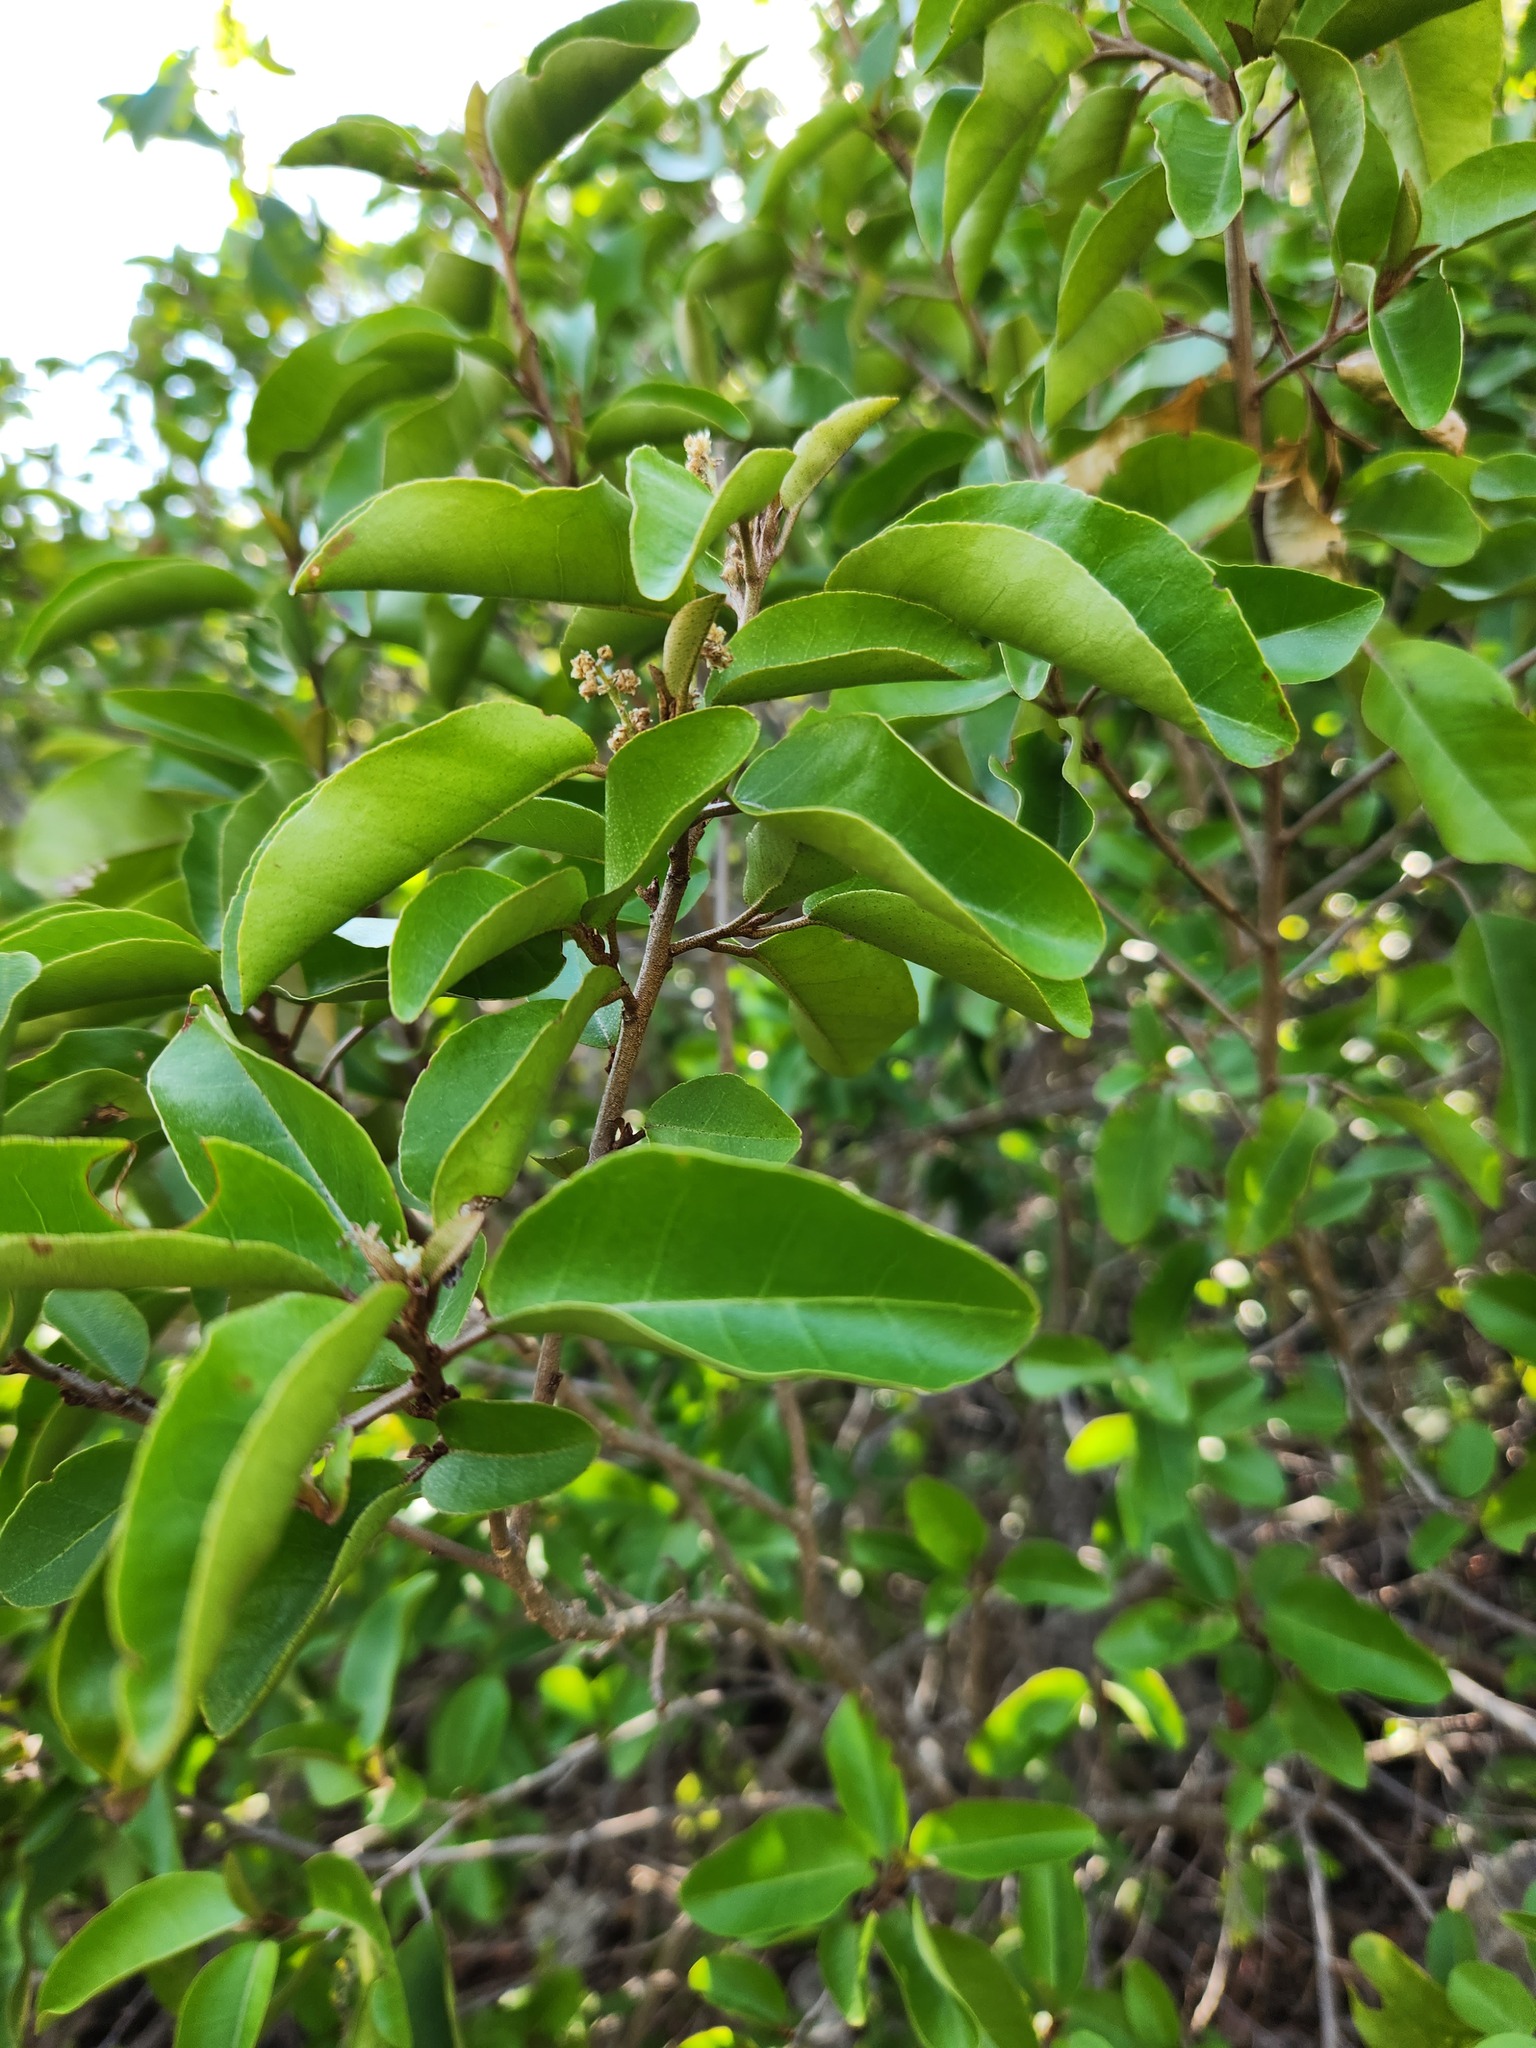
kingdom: Plantae
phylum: Tracheophyta
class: Magnoliopsida
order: Malpighiales
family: Euphorbiaceae
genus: Croton
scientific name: Croton nitens
